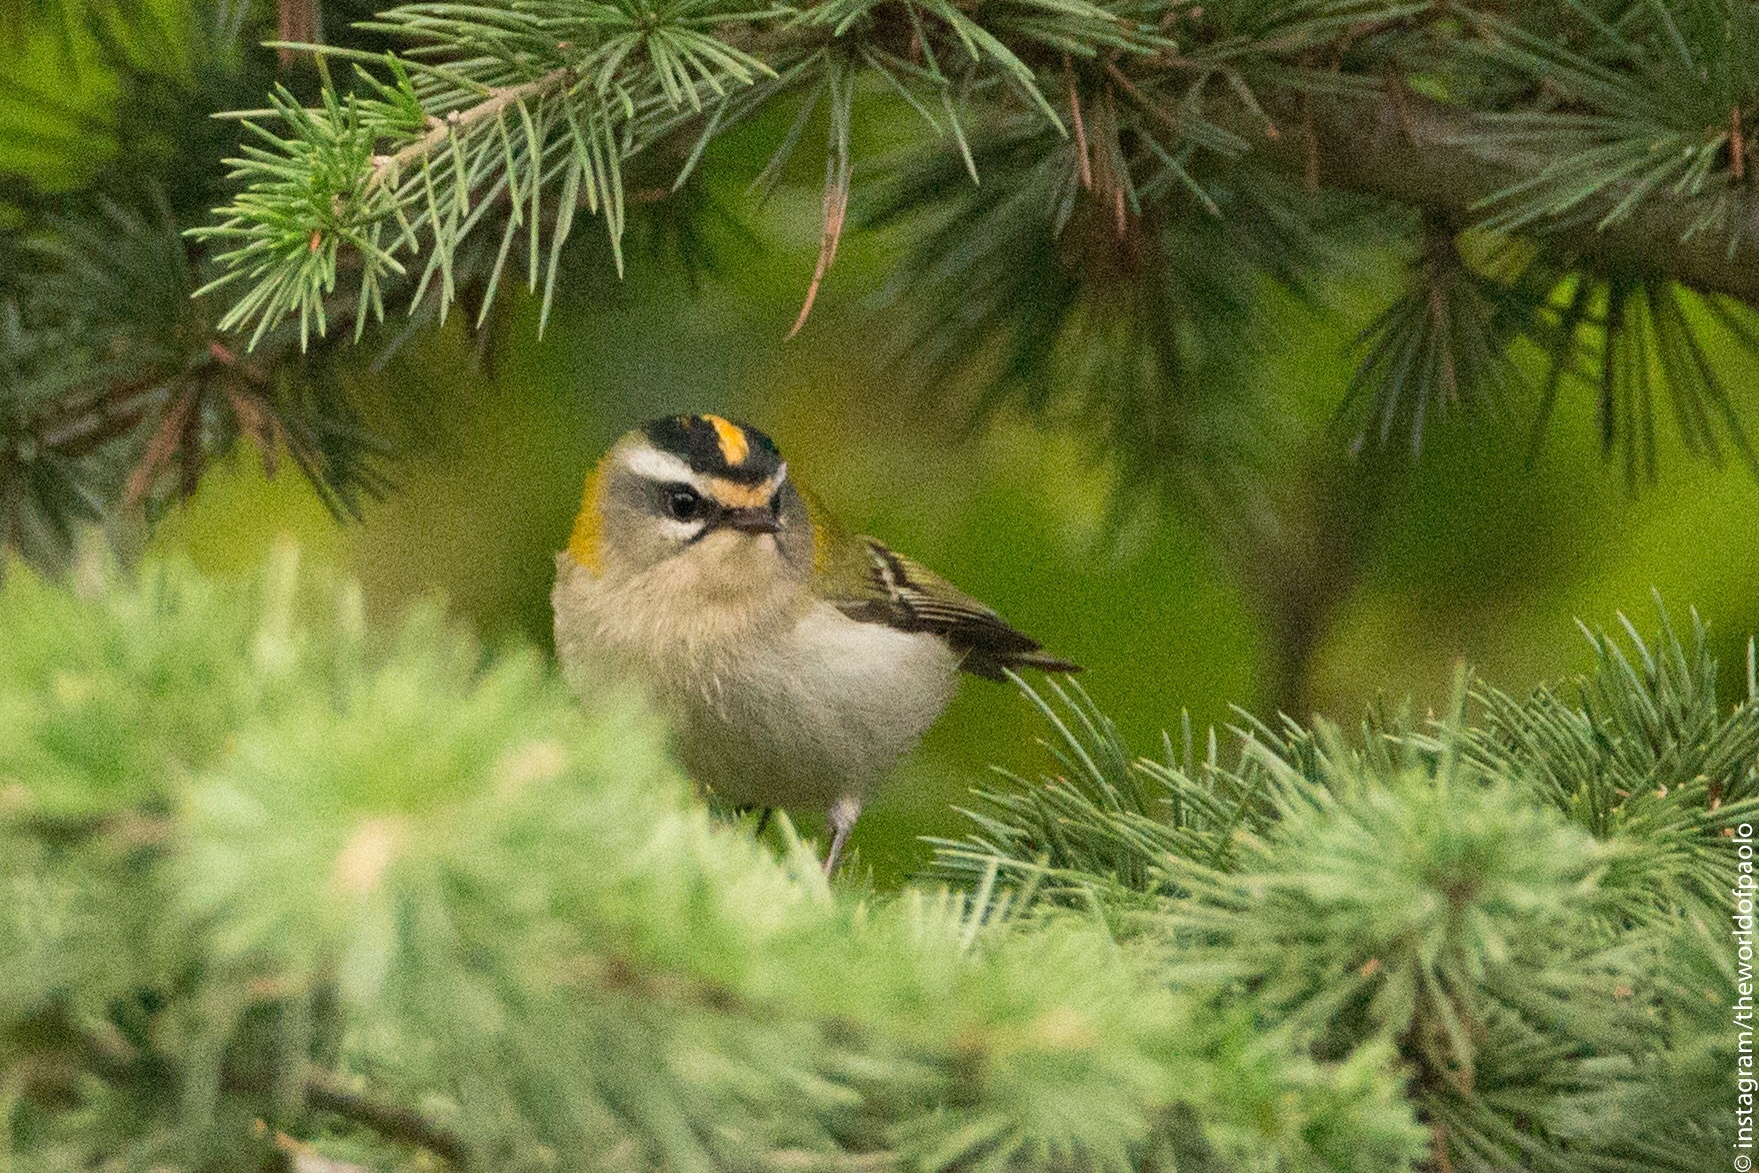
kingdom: Animalia
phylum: Chordata
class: Aves
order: Passeriformes
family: Regulidae
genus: Regulus
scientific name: Regulus ignicapilla
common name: Firecrest
